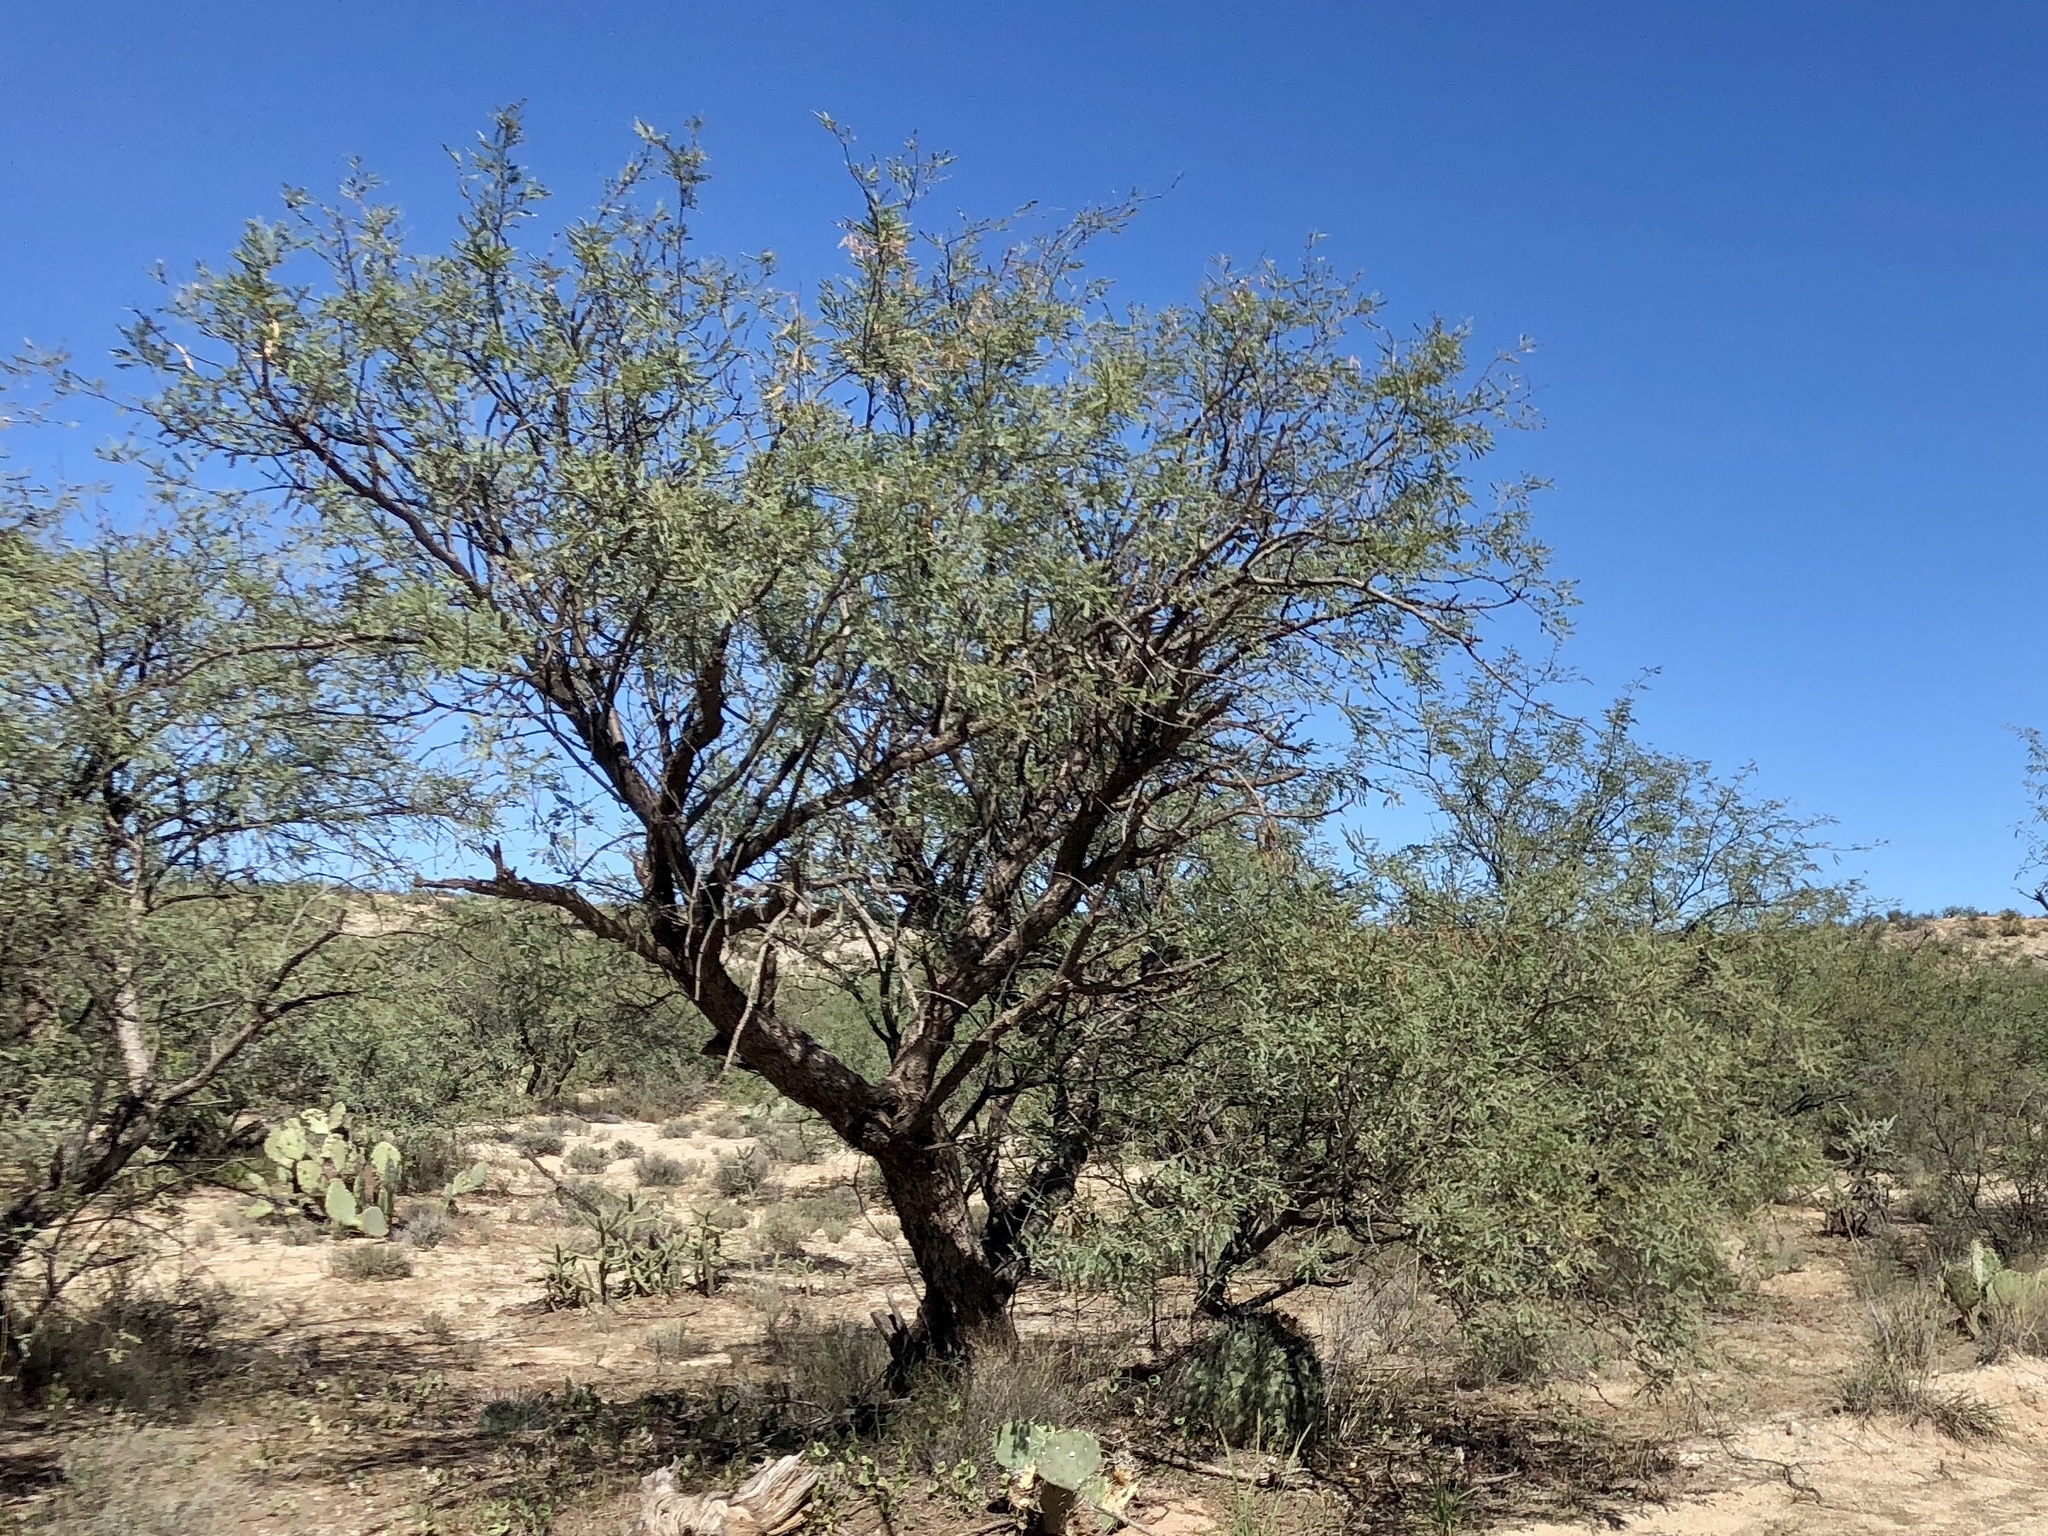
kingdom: Plantae
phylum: Tracheophyta
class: Magnoliopsida
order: Fabales
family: Fabaceae
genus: Prosopis
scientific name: Prosopis velutina
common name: Velvet mesquite
